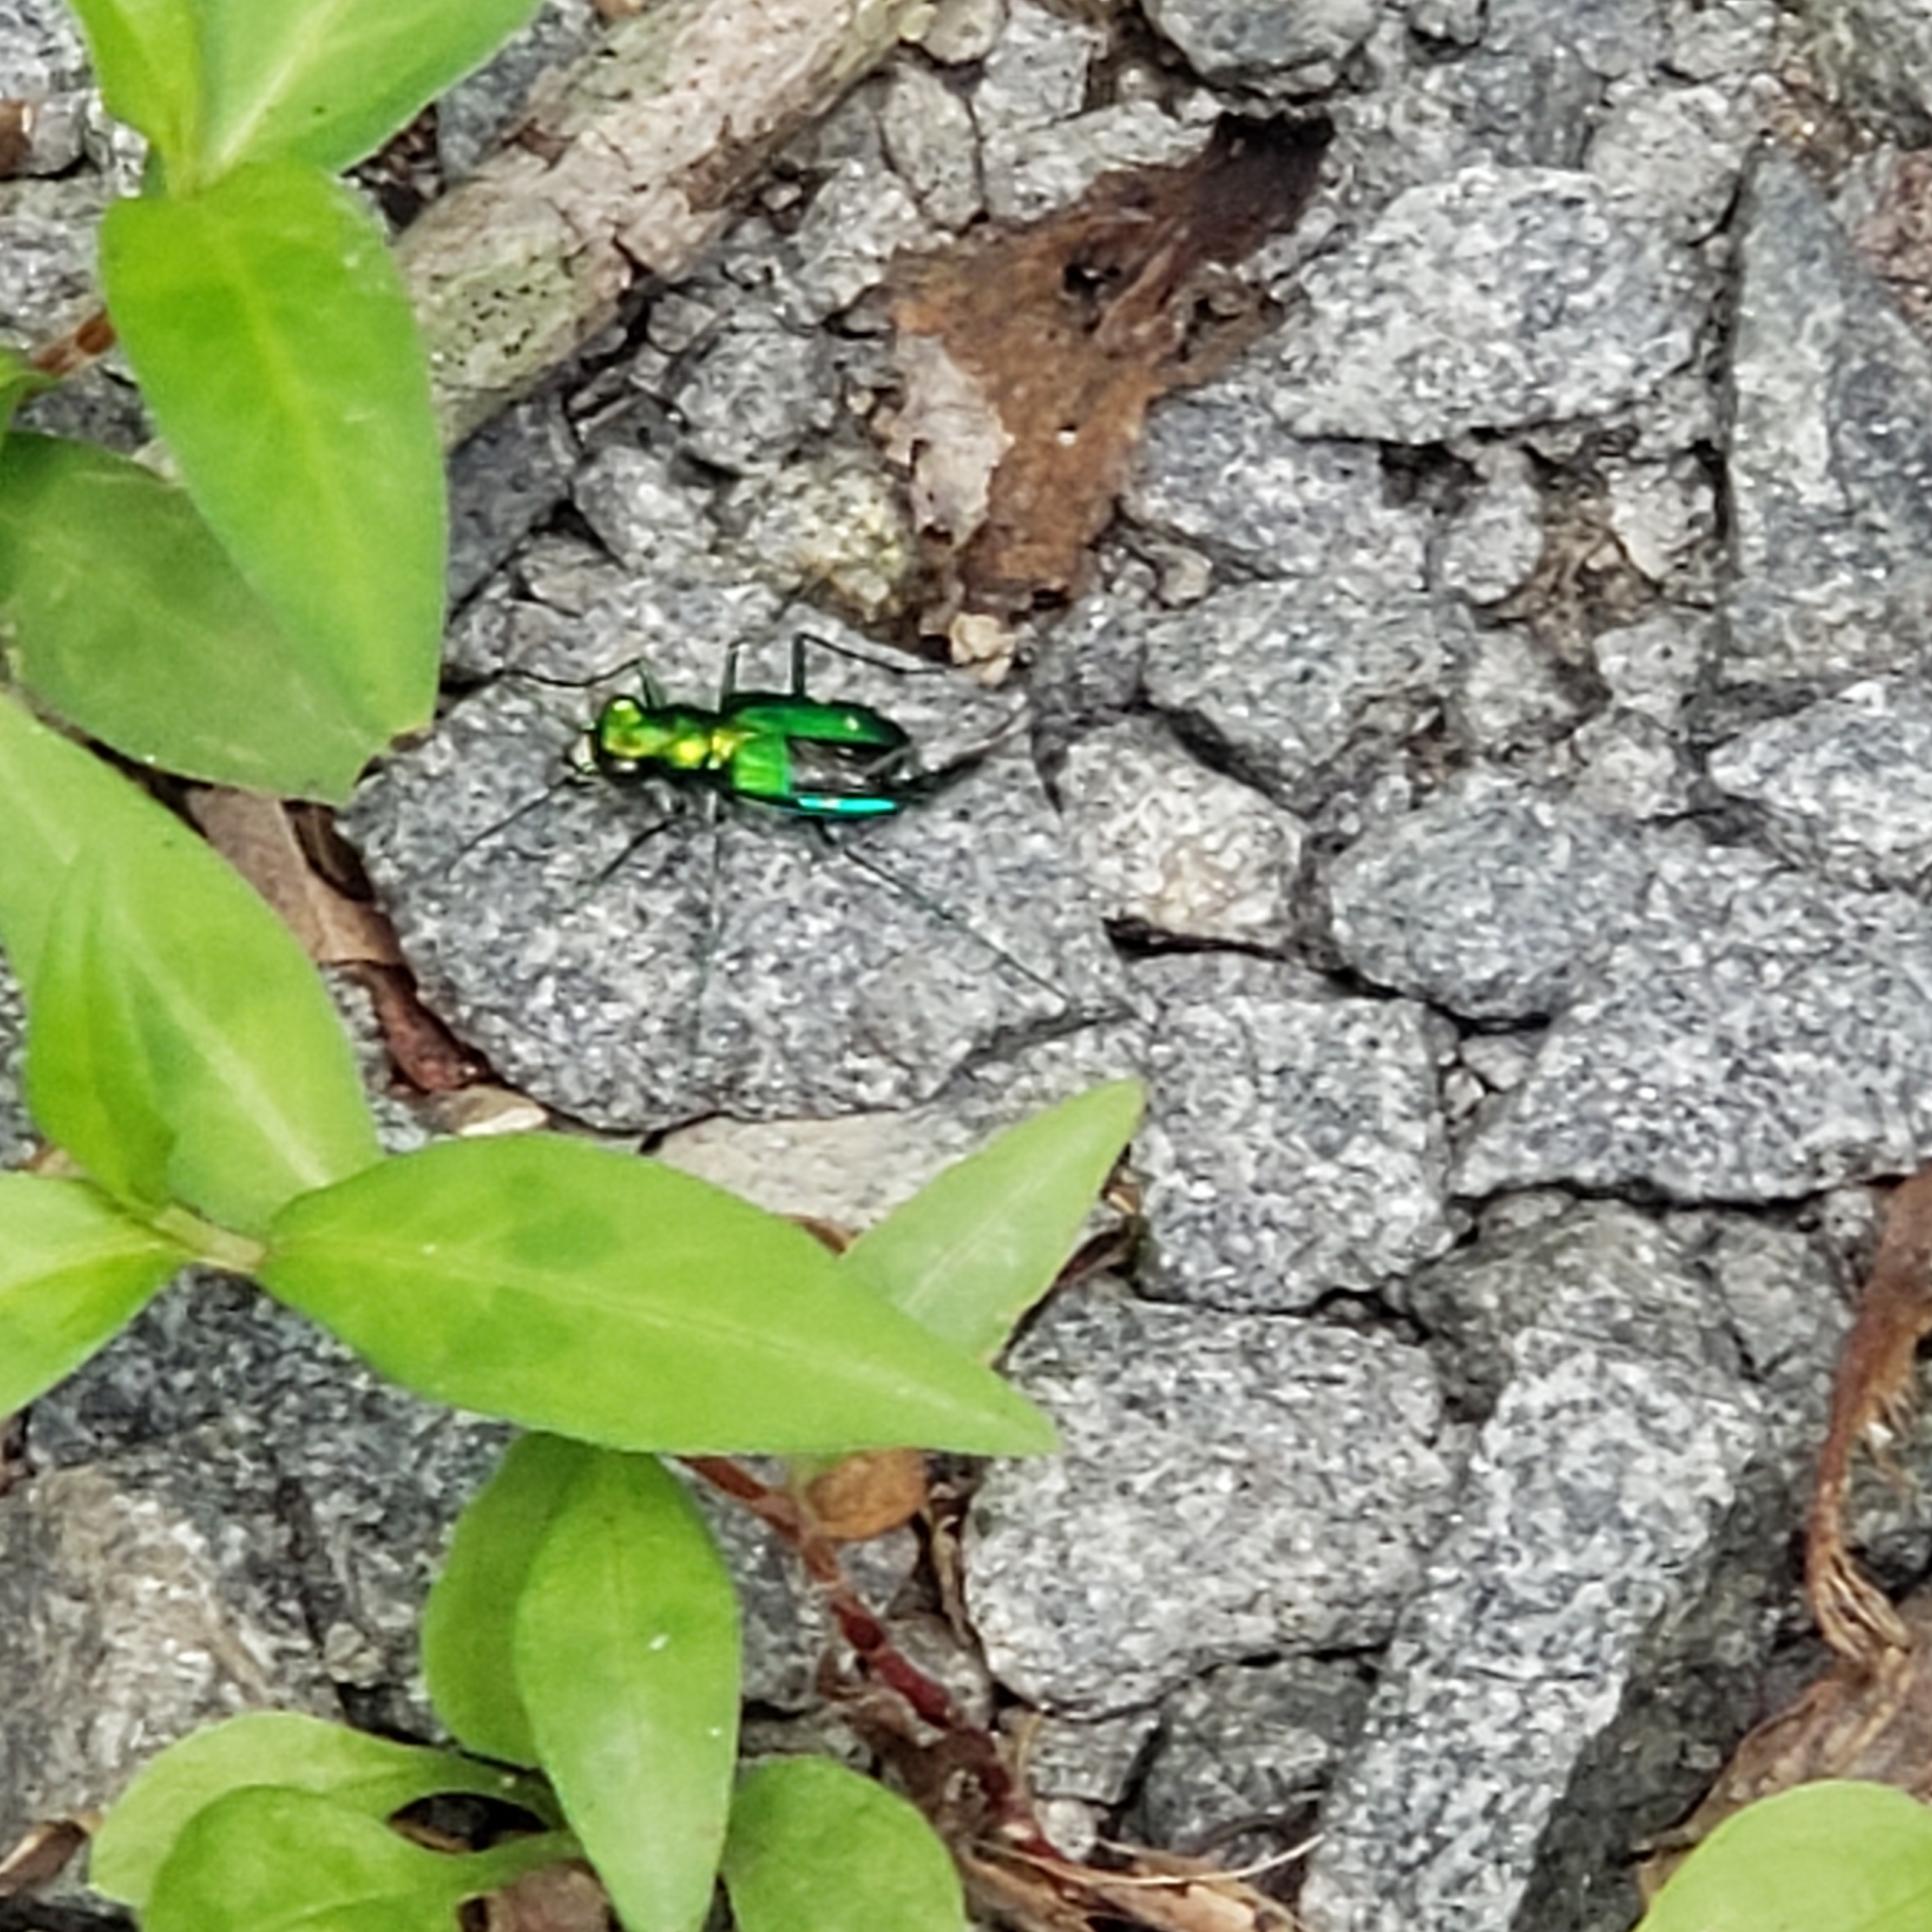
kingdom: Animalia
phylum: Arthropoda
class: Insecta
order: Coleoptera
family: Carabidae
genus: Cicindela
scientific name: Cicindela sexguttata
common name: Six-spotted tiger beetle
